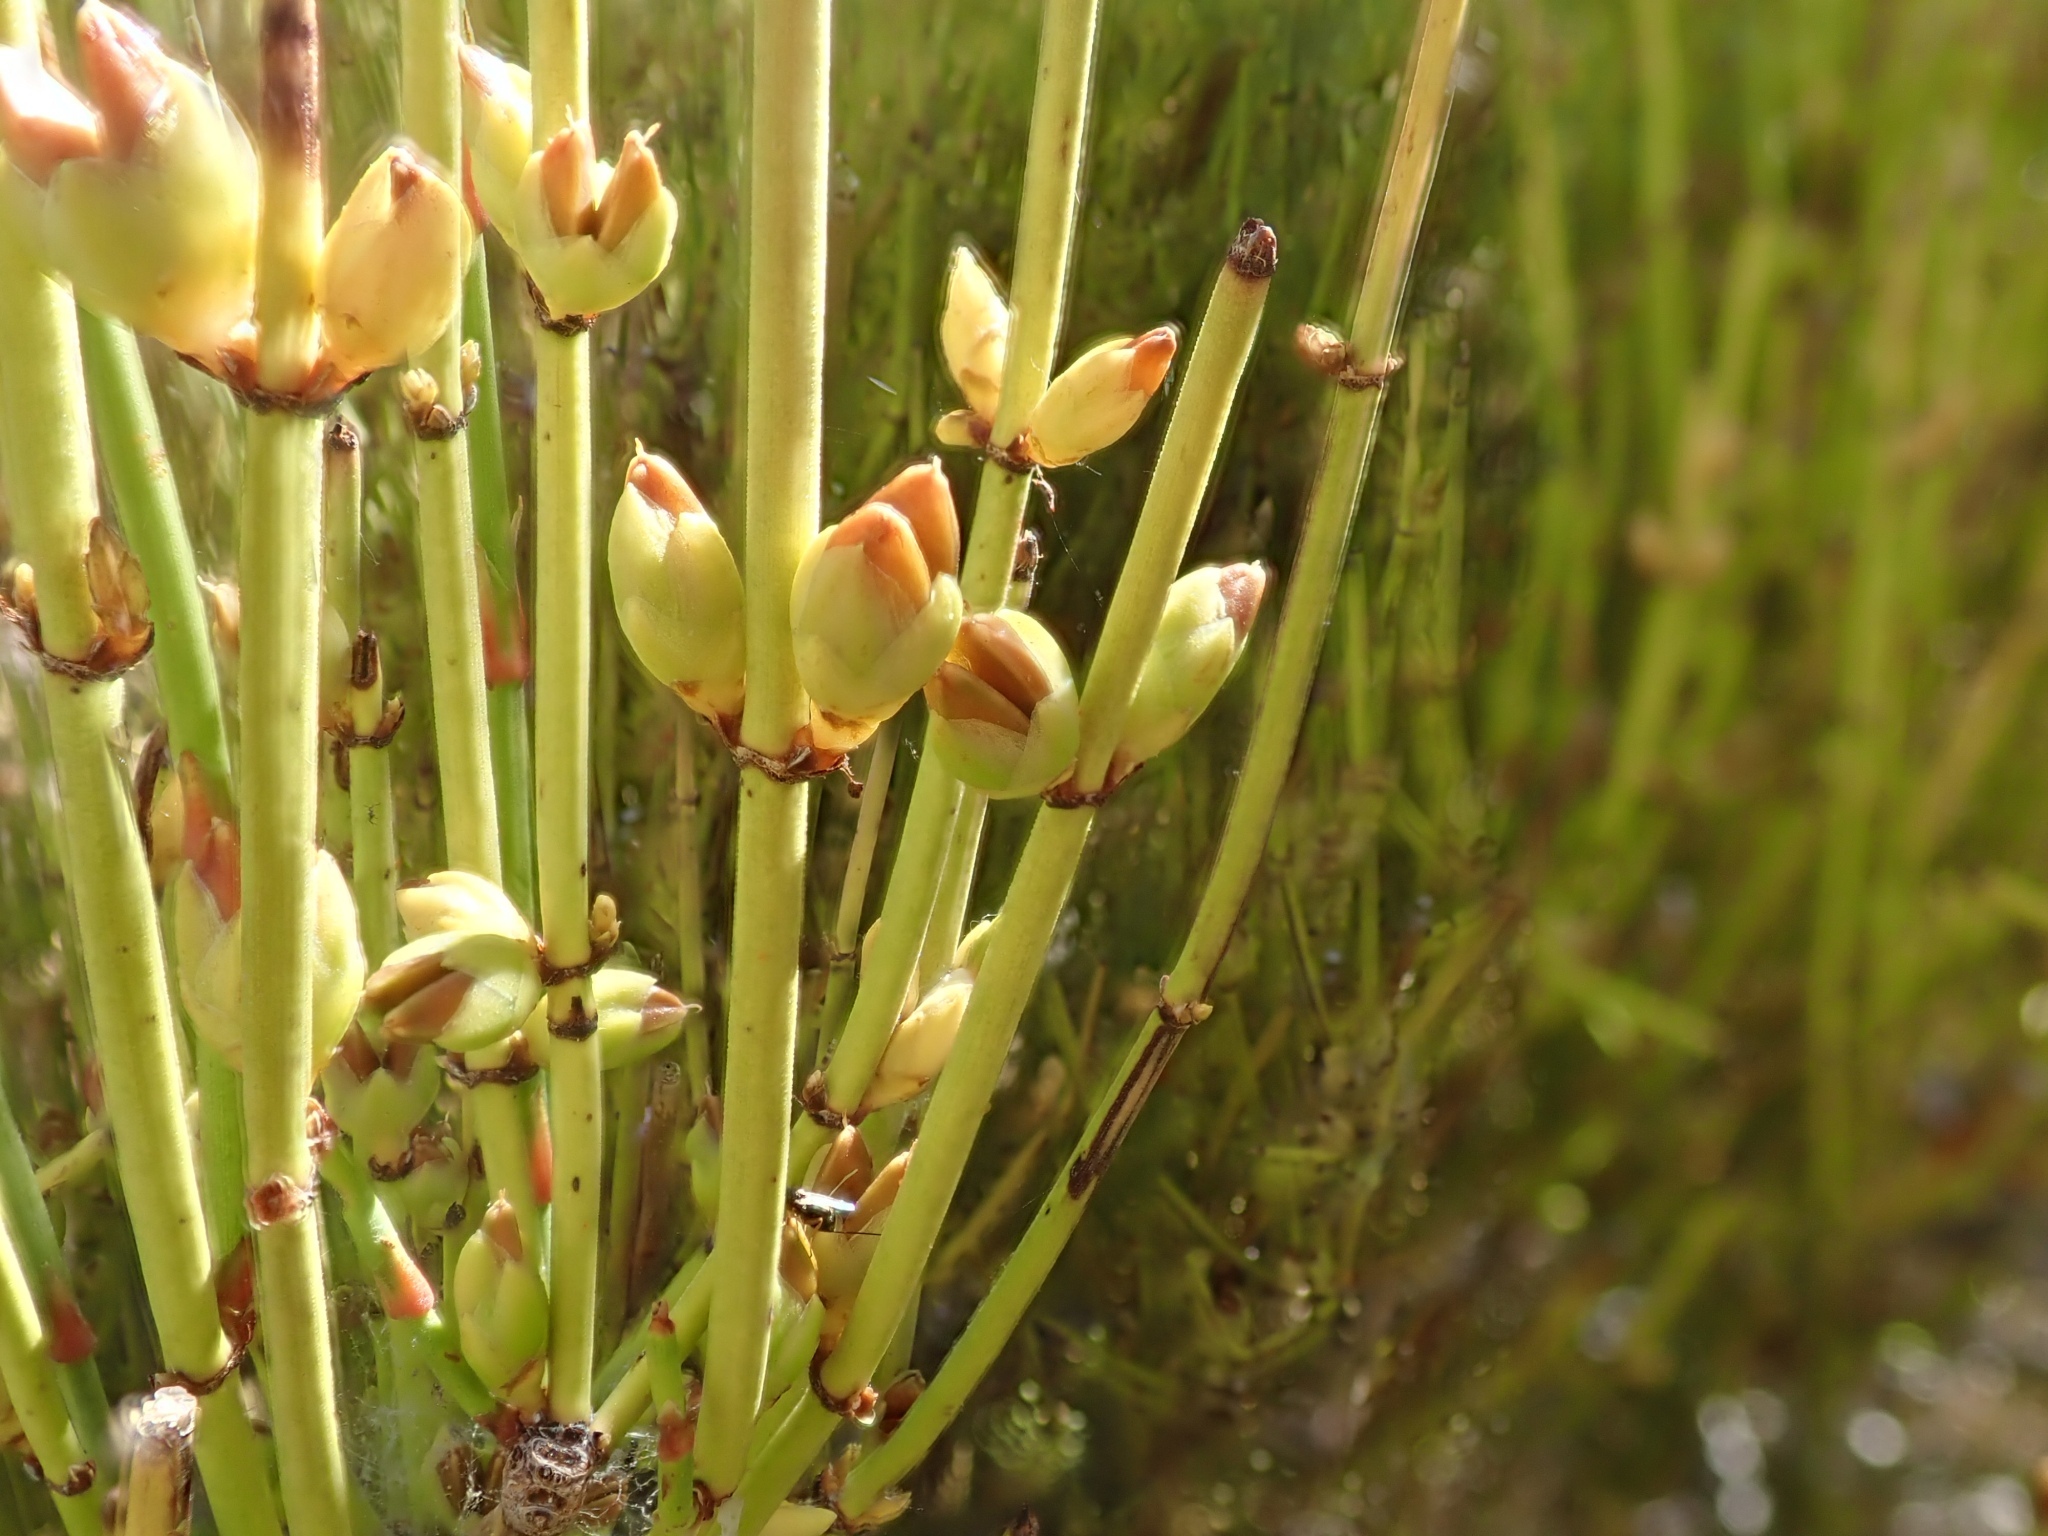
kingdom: Plantae
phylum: Tracheophyta
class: Gnetopsida
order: Ephedrales
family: Ephedraceae
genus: Ephedra
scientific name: Ephedra viridis
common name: Green ephedra
